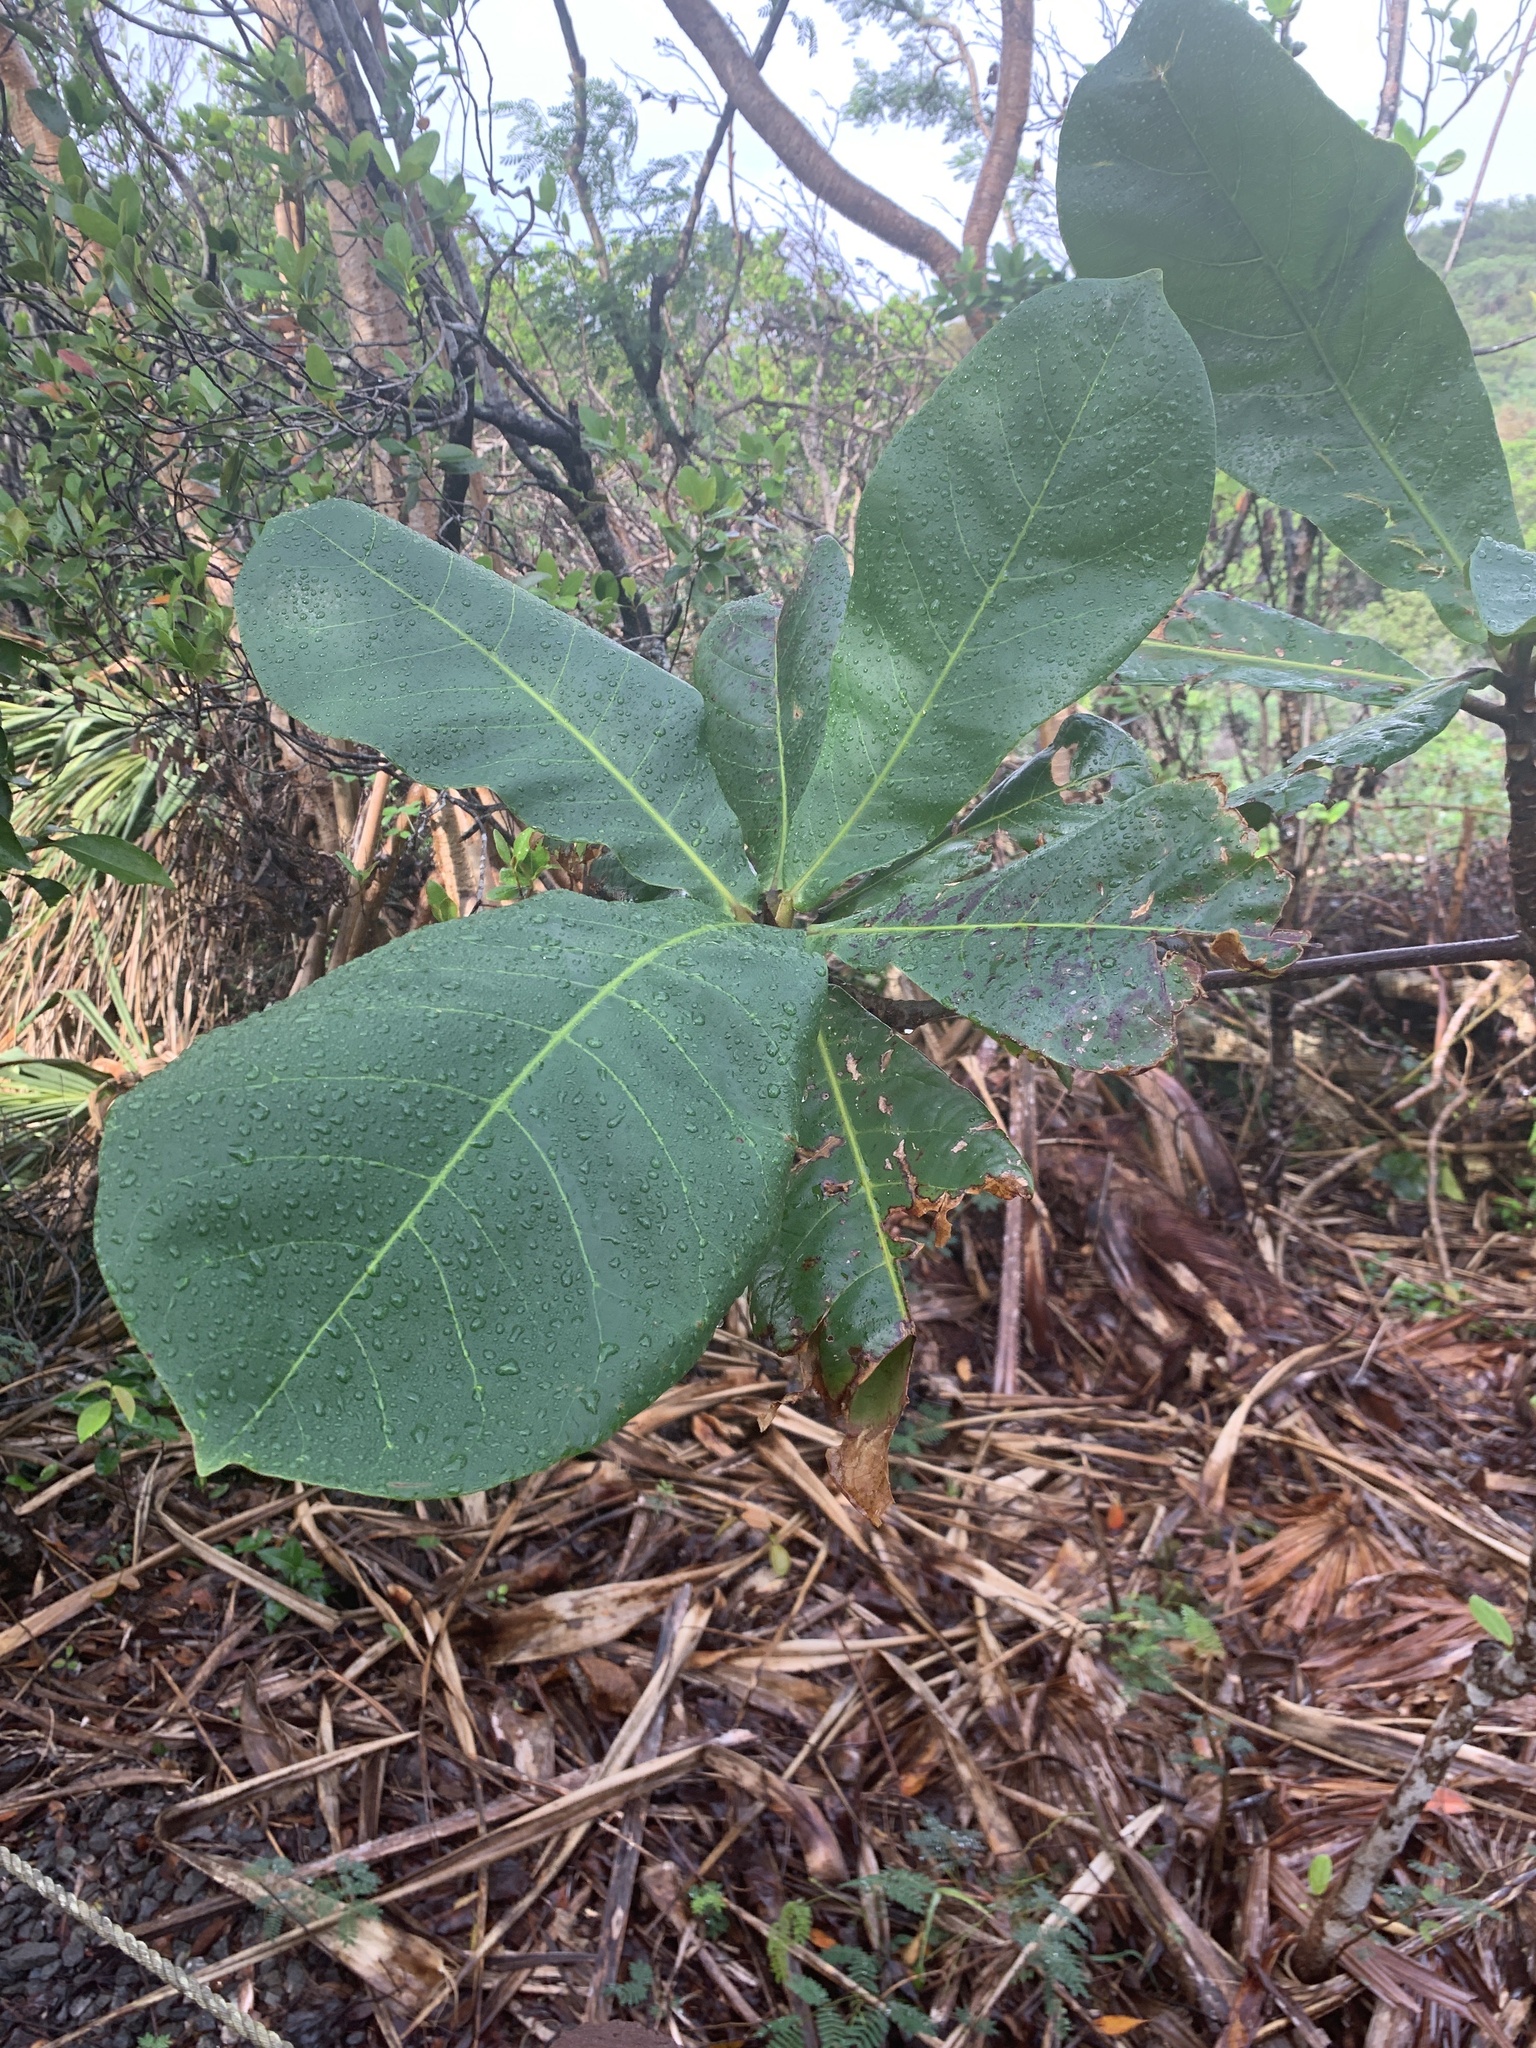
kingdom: Plantae
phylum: Tracheophyta
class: Magnoliopsida
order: Myrtales
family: Combretaceae
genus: Terminalia
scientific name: Terminalia catappa
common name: Tropical almond
